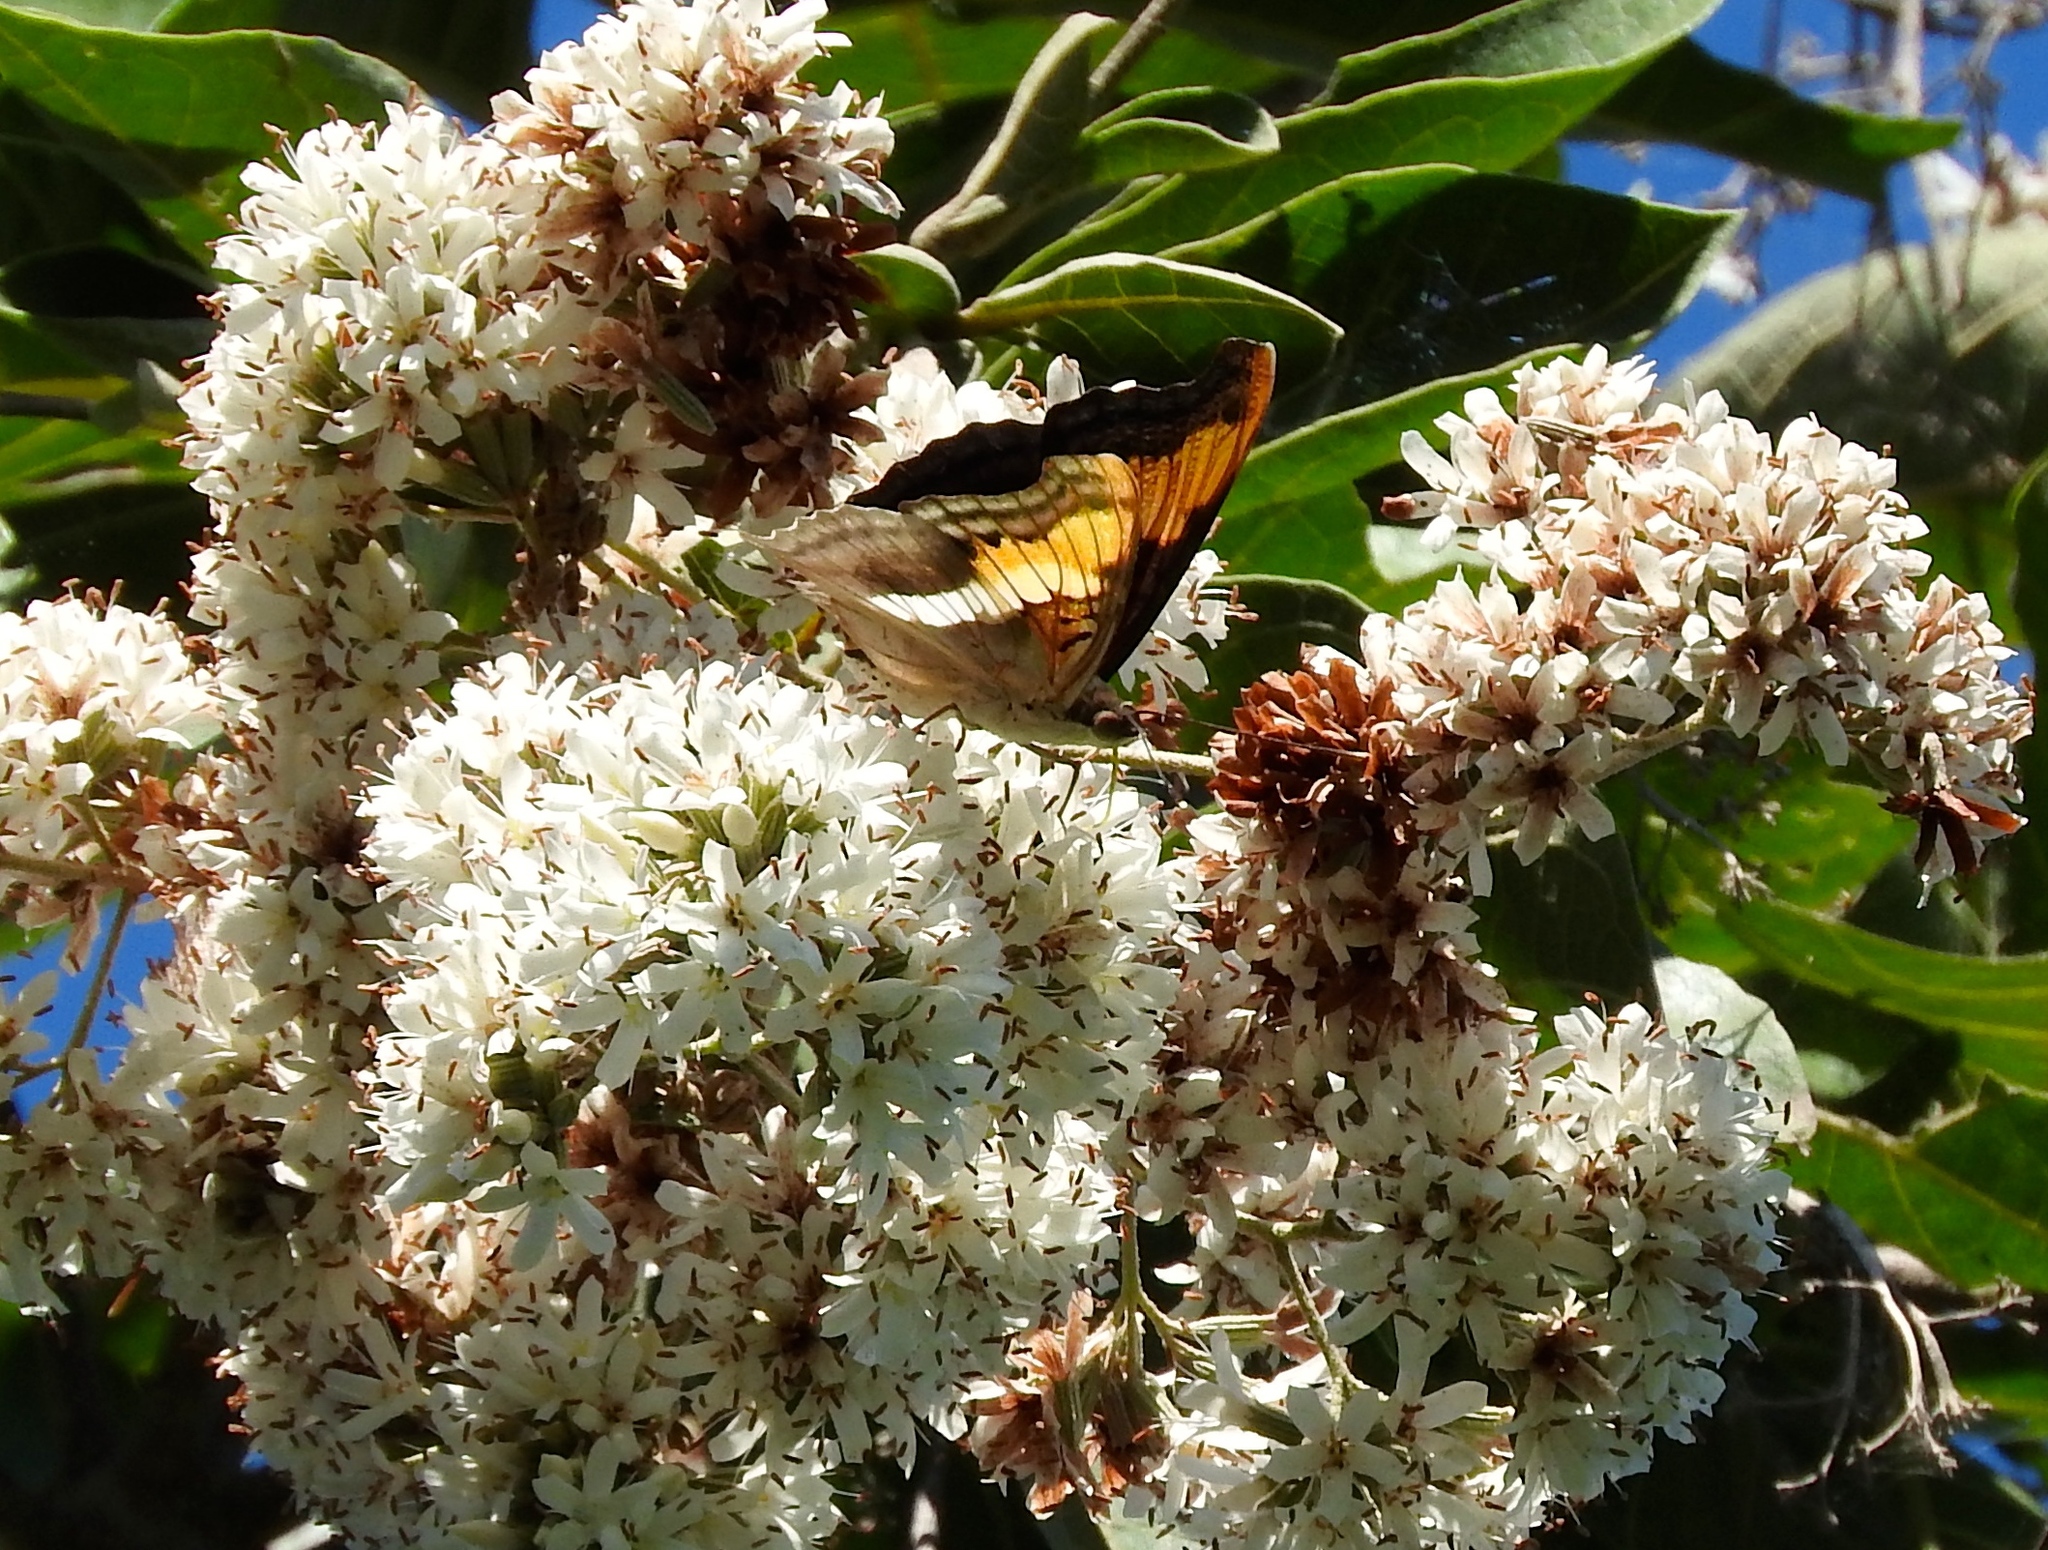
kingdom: Plantae
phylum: Tracheophyta
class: Magnoliopsida
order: Boraginales
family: Cordiaceae
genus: Cordia
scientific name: Cordia alliodora
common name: Spanish elm
